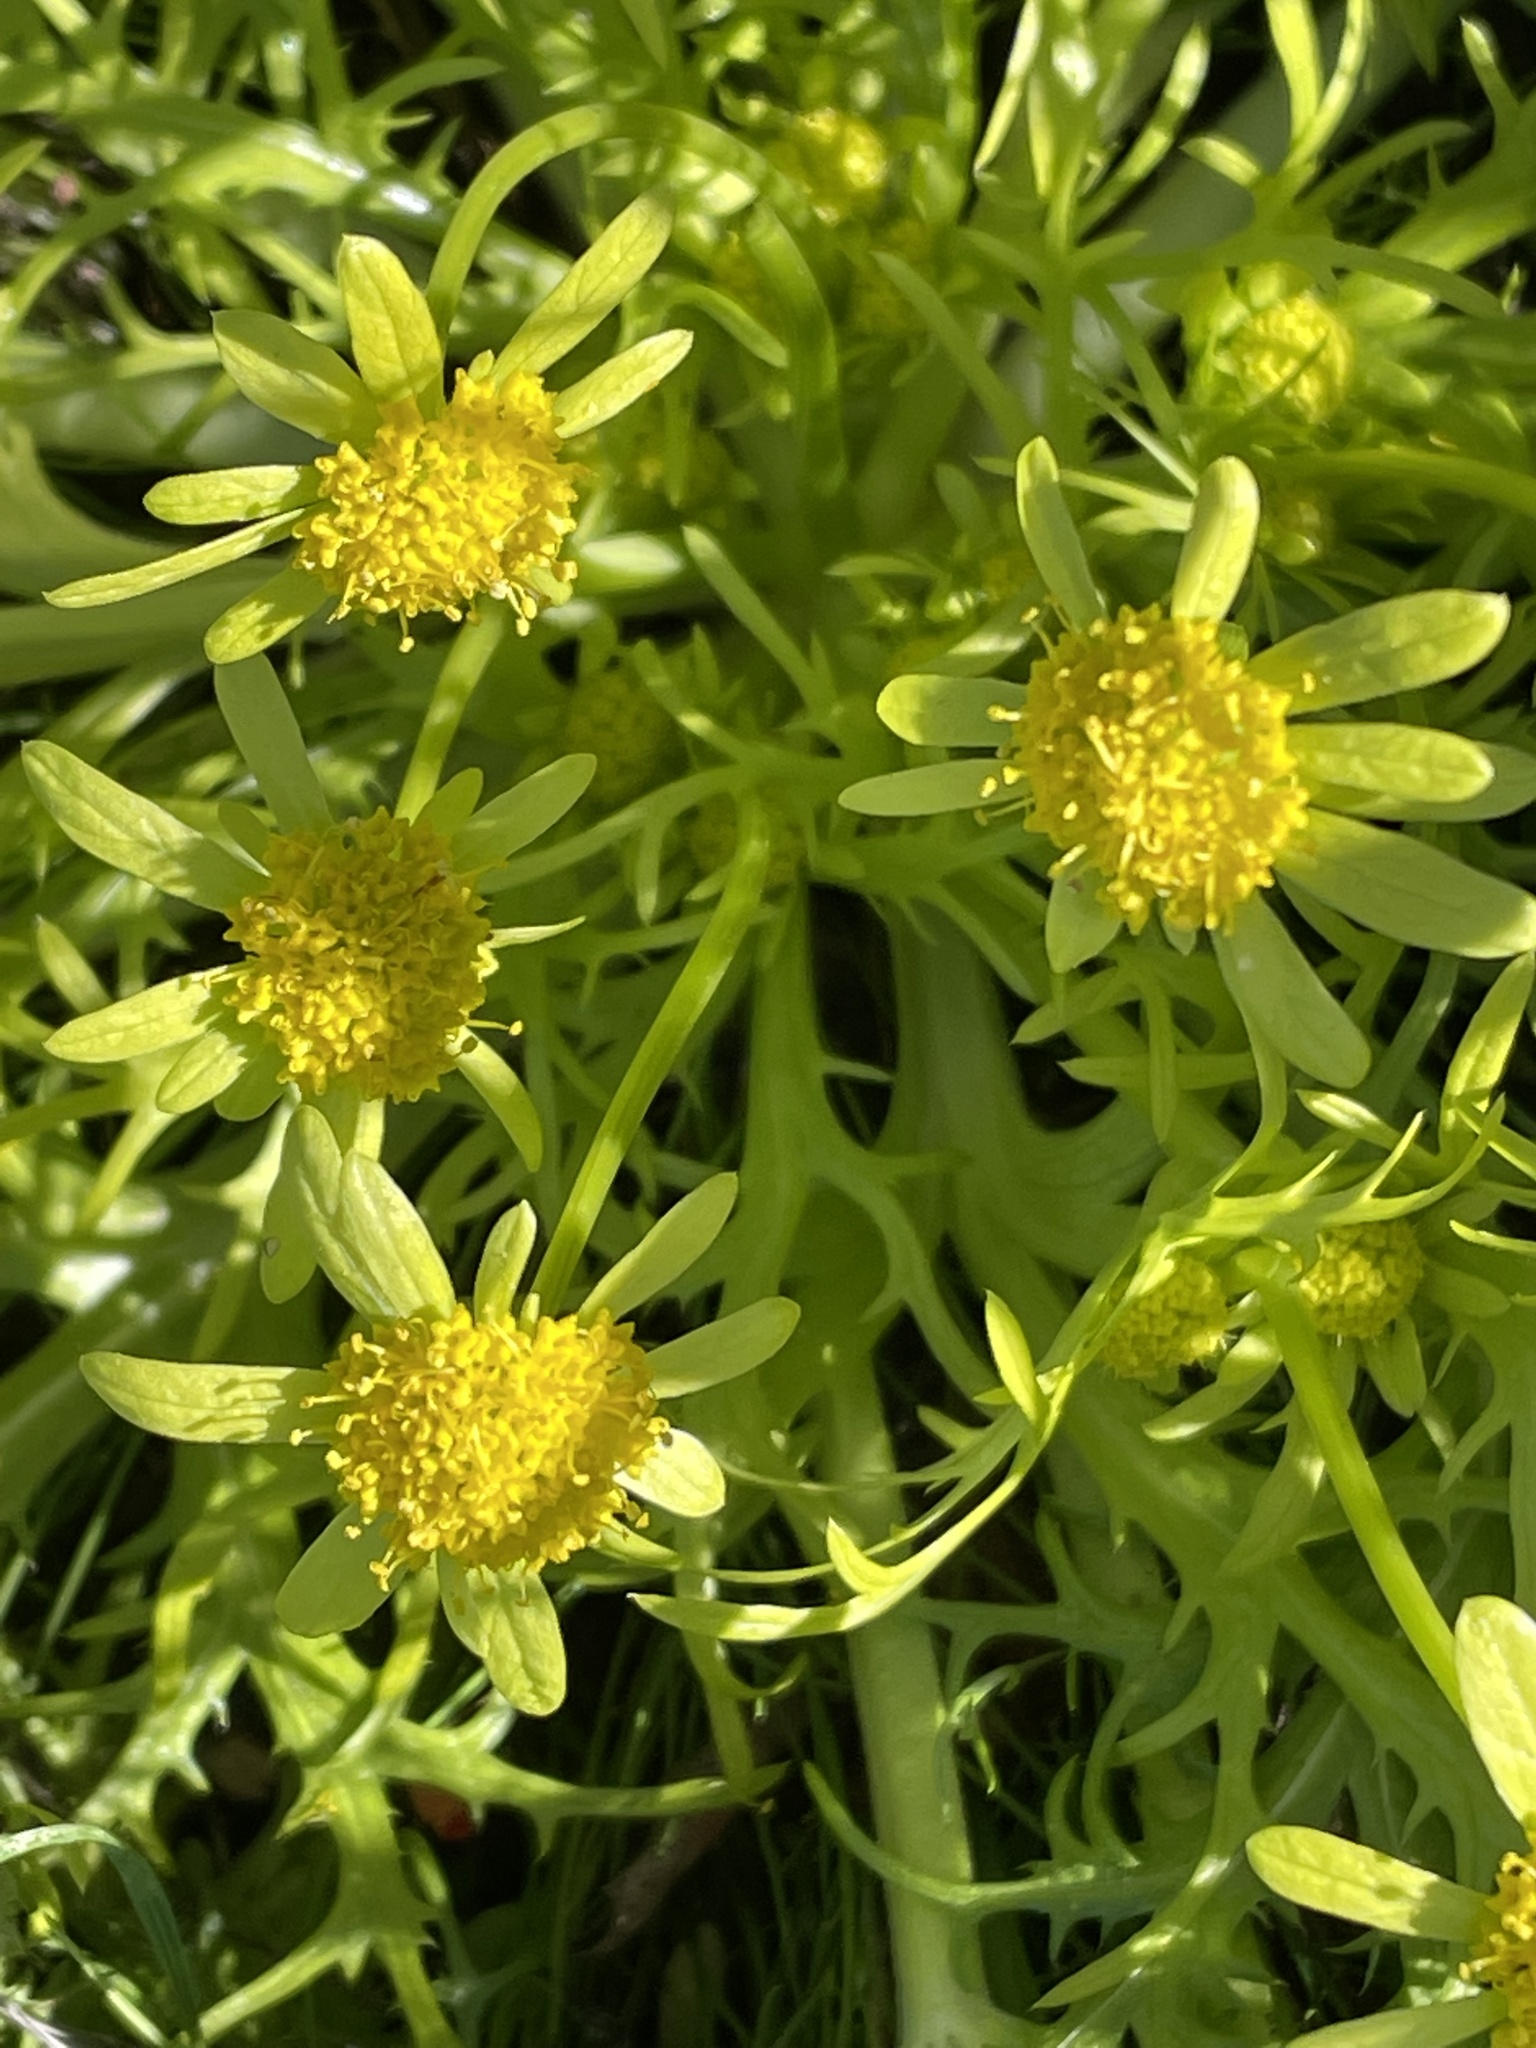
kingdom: Plantae
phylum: Tracheophyta
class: Magnoliopsida
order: Apiales
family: Apiaceae
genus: Sanicula
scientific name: Sanicula arctopoides
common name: Footsteps-of-spring
